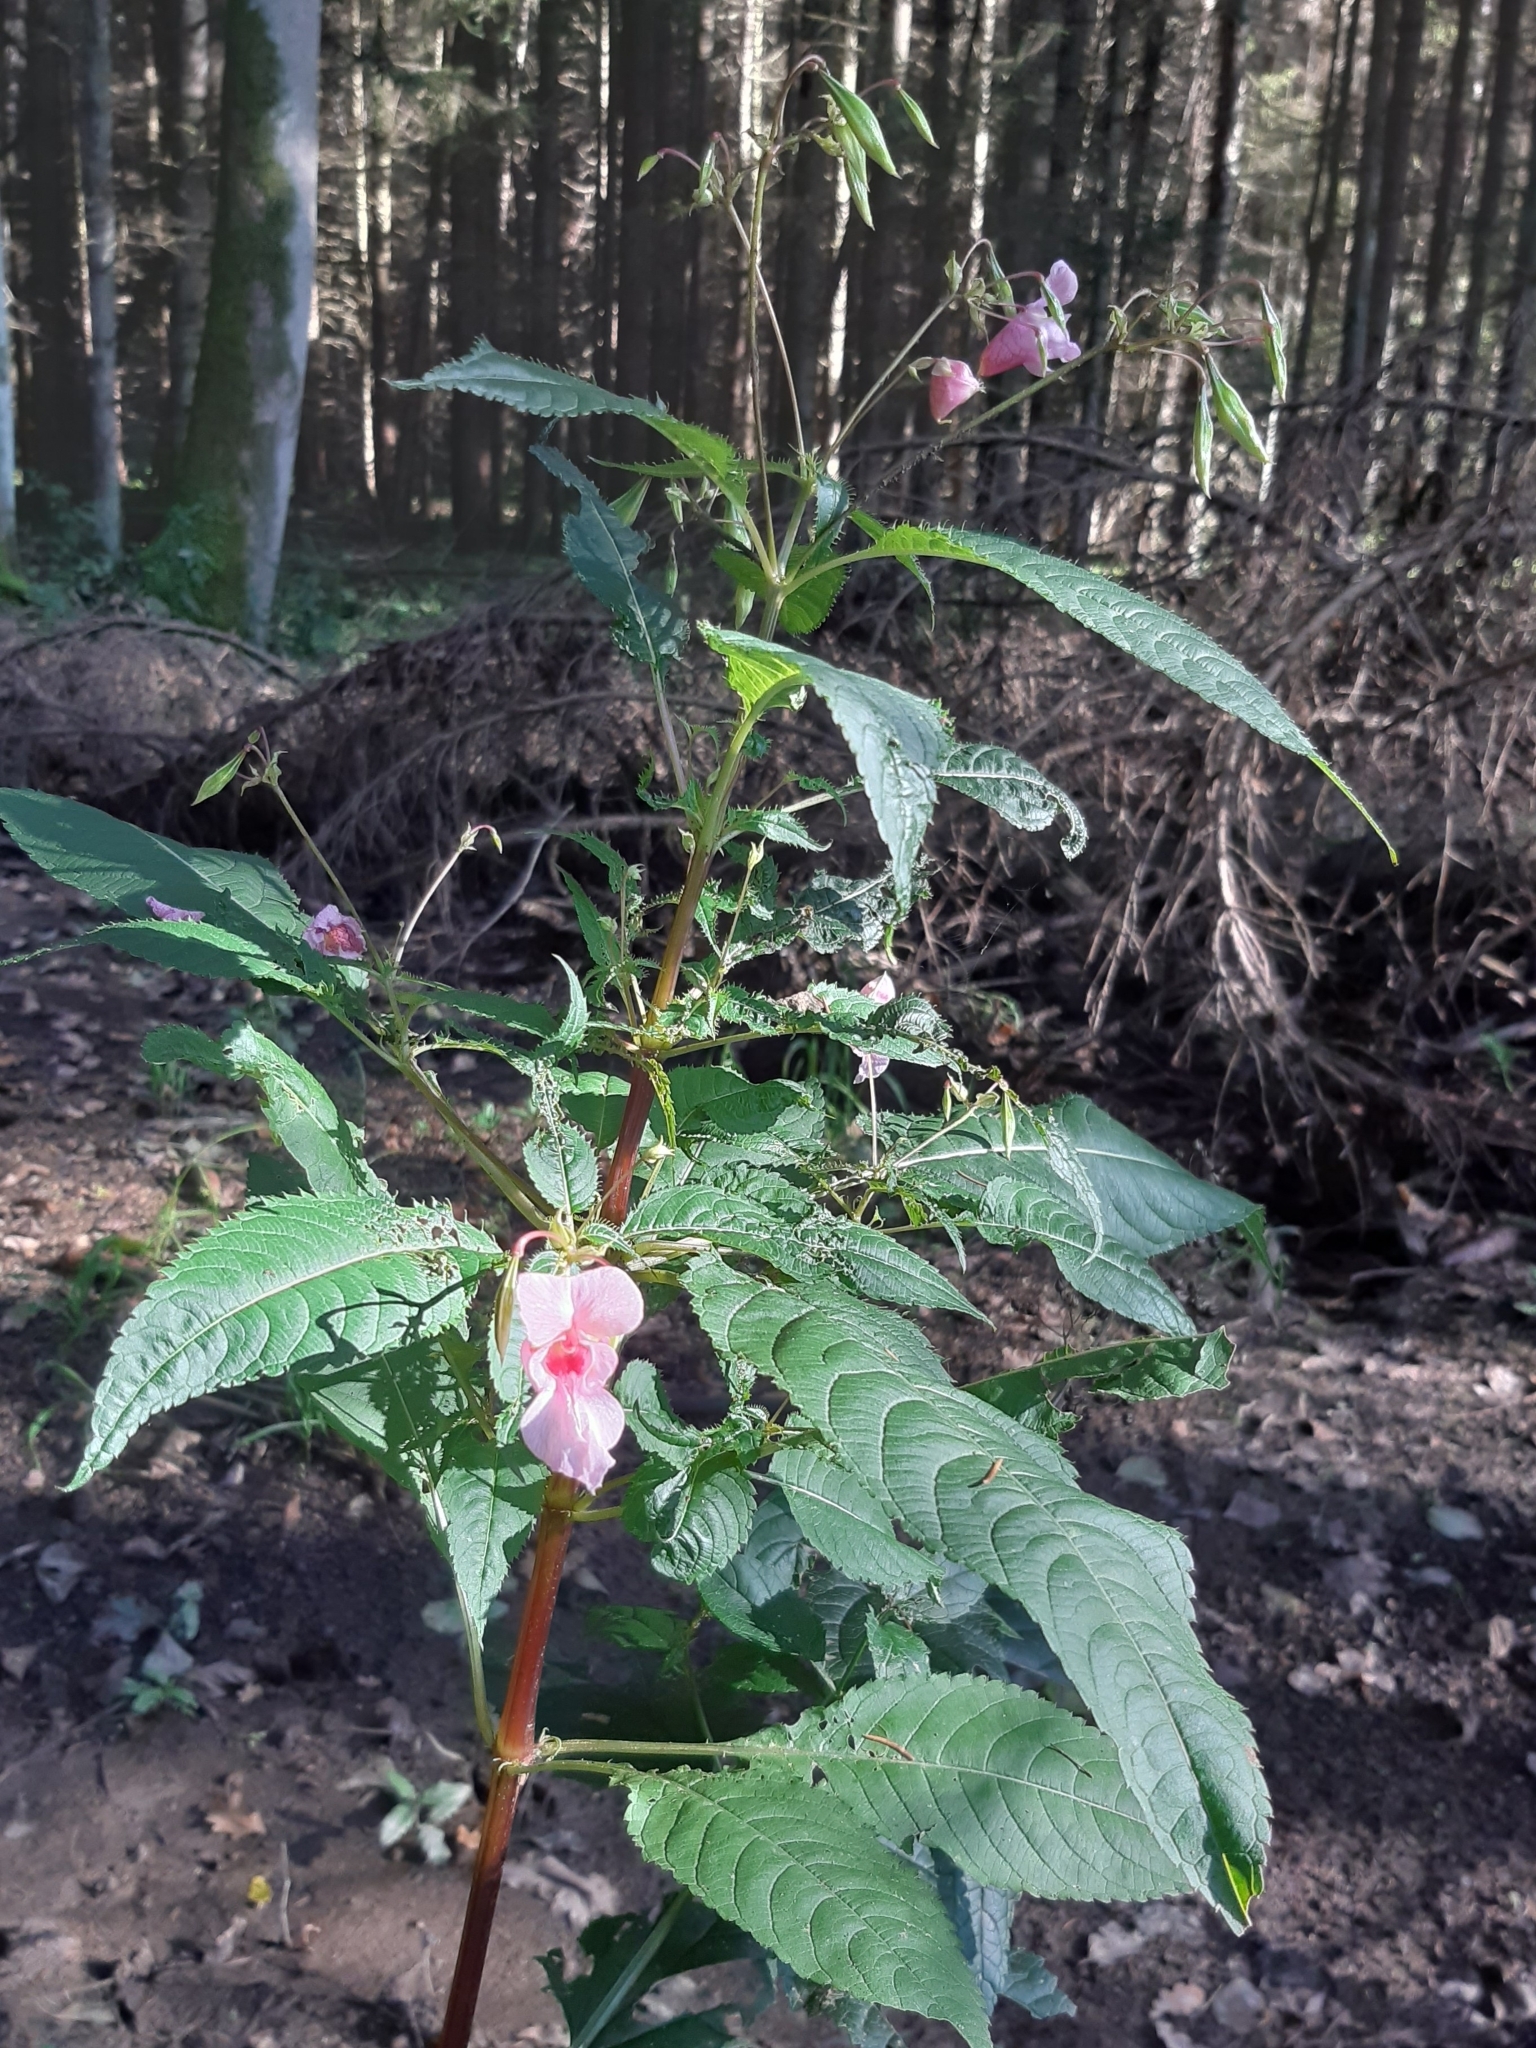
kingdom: Plantae
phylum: Tracheophyta
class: Magnoliopsida
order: Ericales
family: Balsaminaceae
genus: Impatiens
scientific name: Impatiens glandulifera
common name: Himalayan balsam
